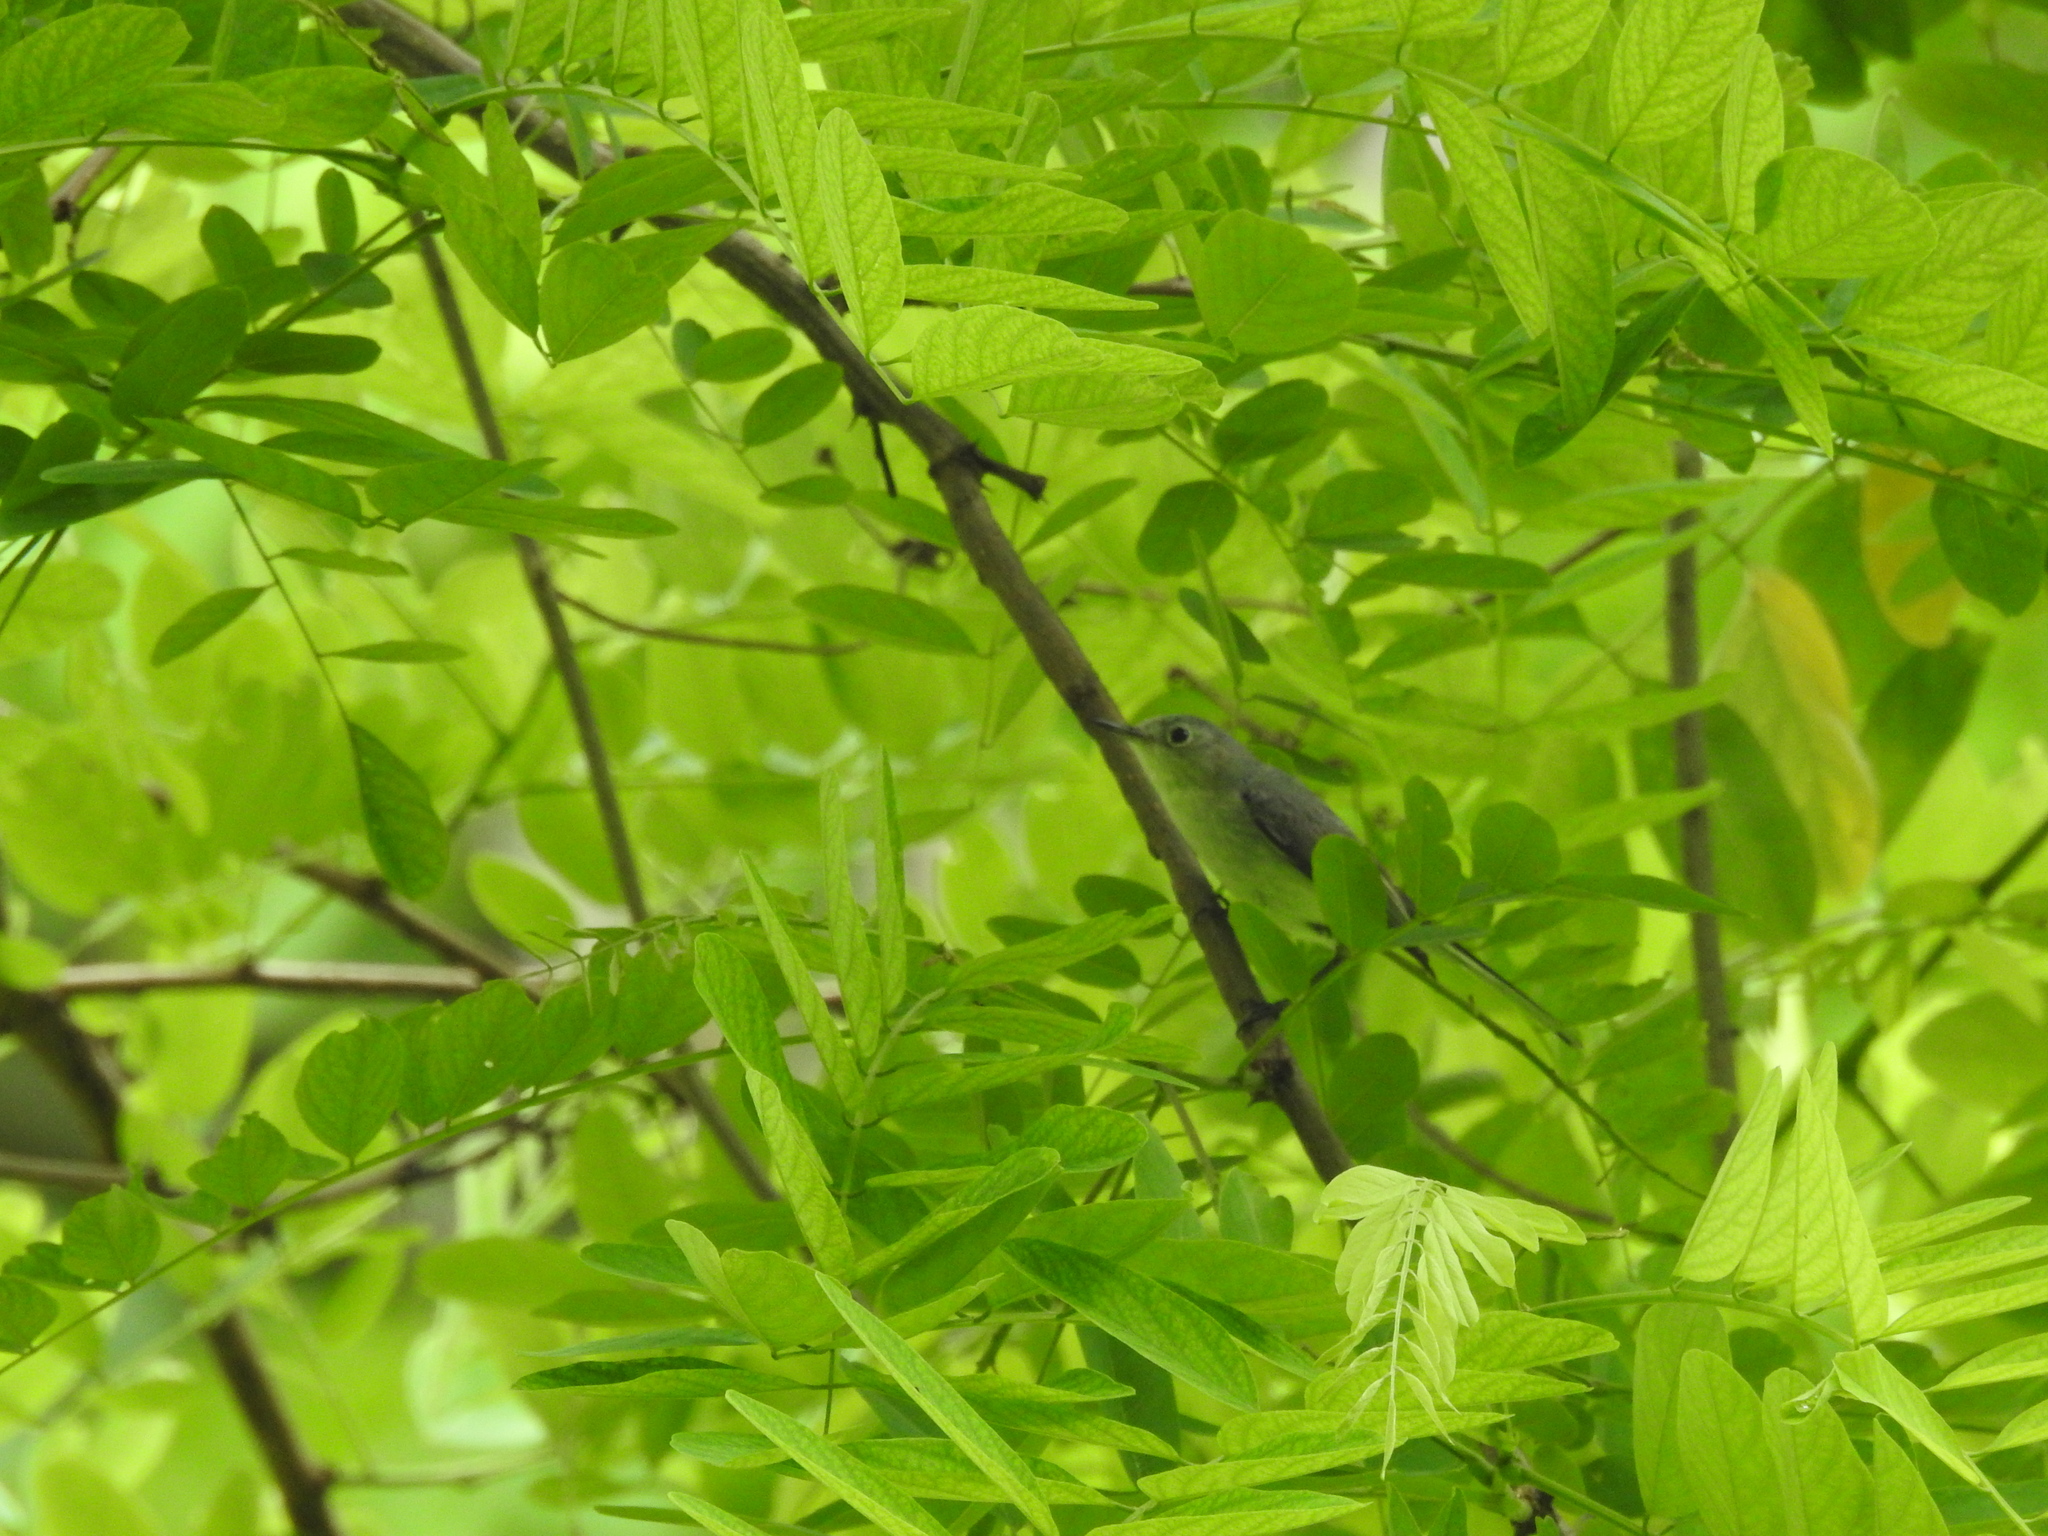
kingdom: Animalia
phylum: Chordata
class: Aves
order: Passeriformes
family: Polioptilidae
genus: Polioptila
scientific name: Polioptila caerulea
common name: Blue-gray gnatcatcher
